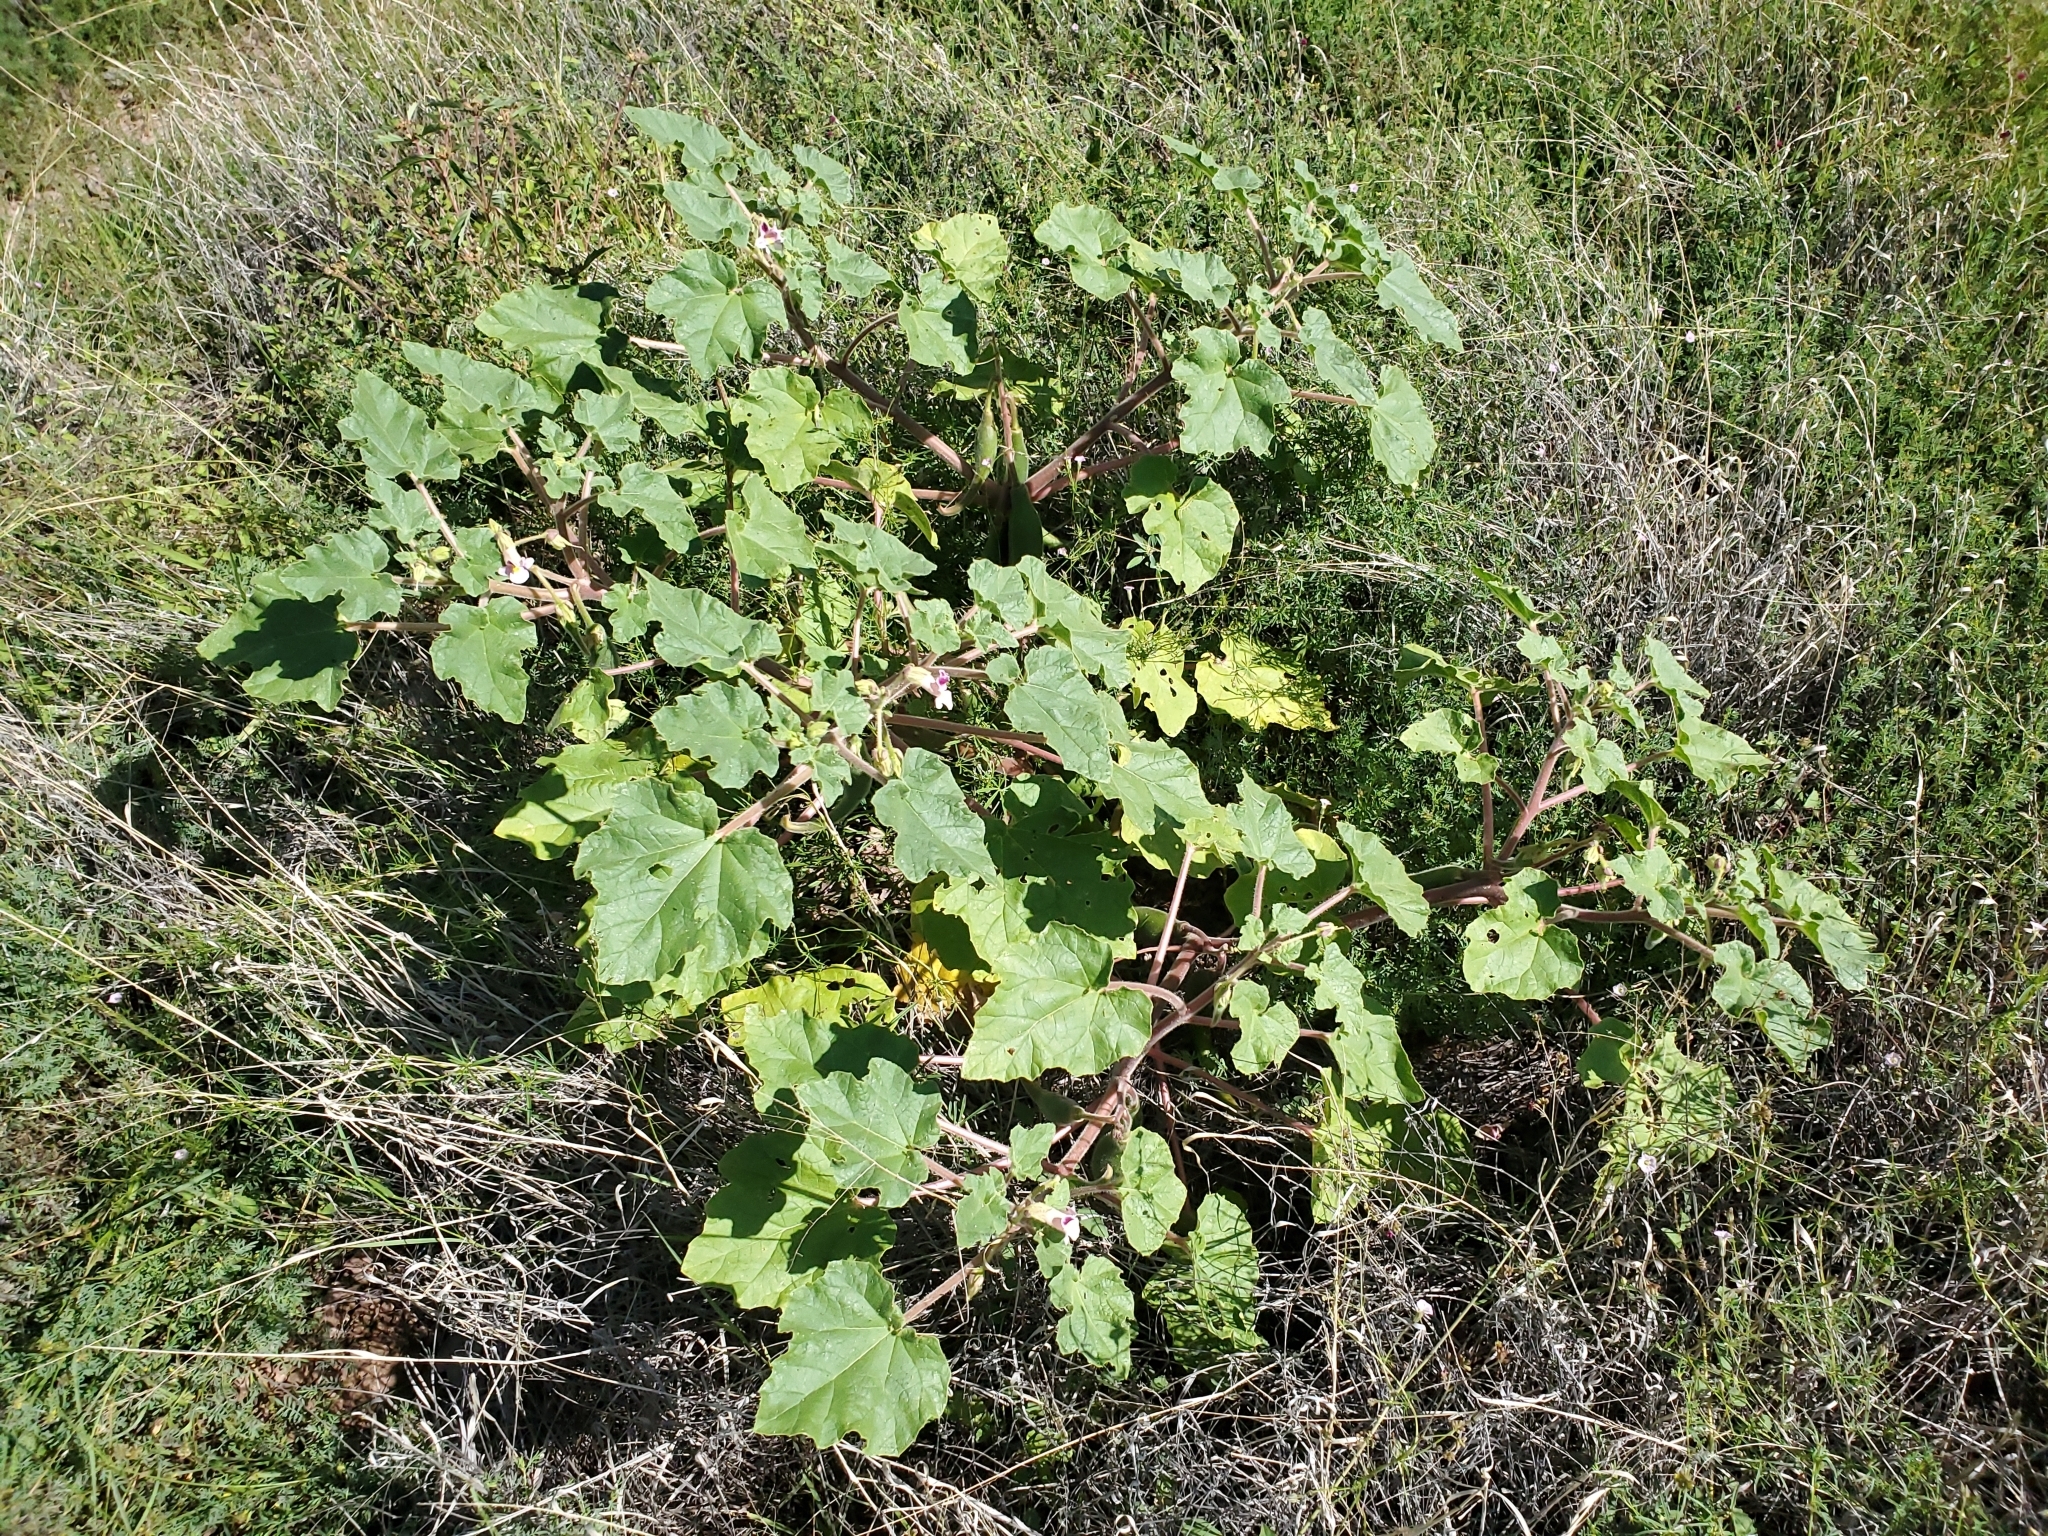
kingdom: Plantae
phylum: Tracheophyta
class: Magnoliopsida
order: Lamiales
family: Martyniaceae
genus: Proboscidea
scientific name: Proboscidea parviflora
